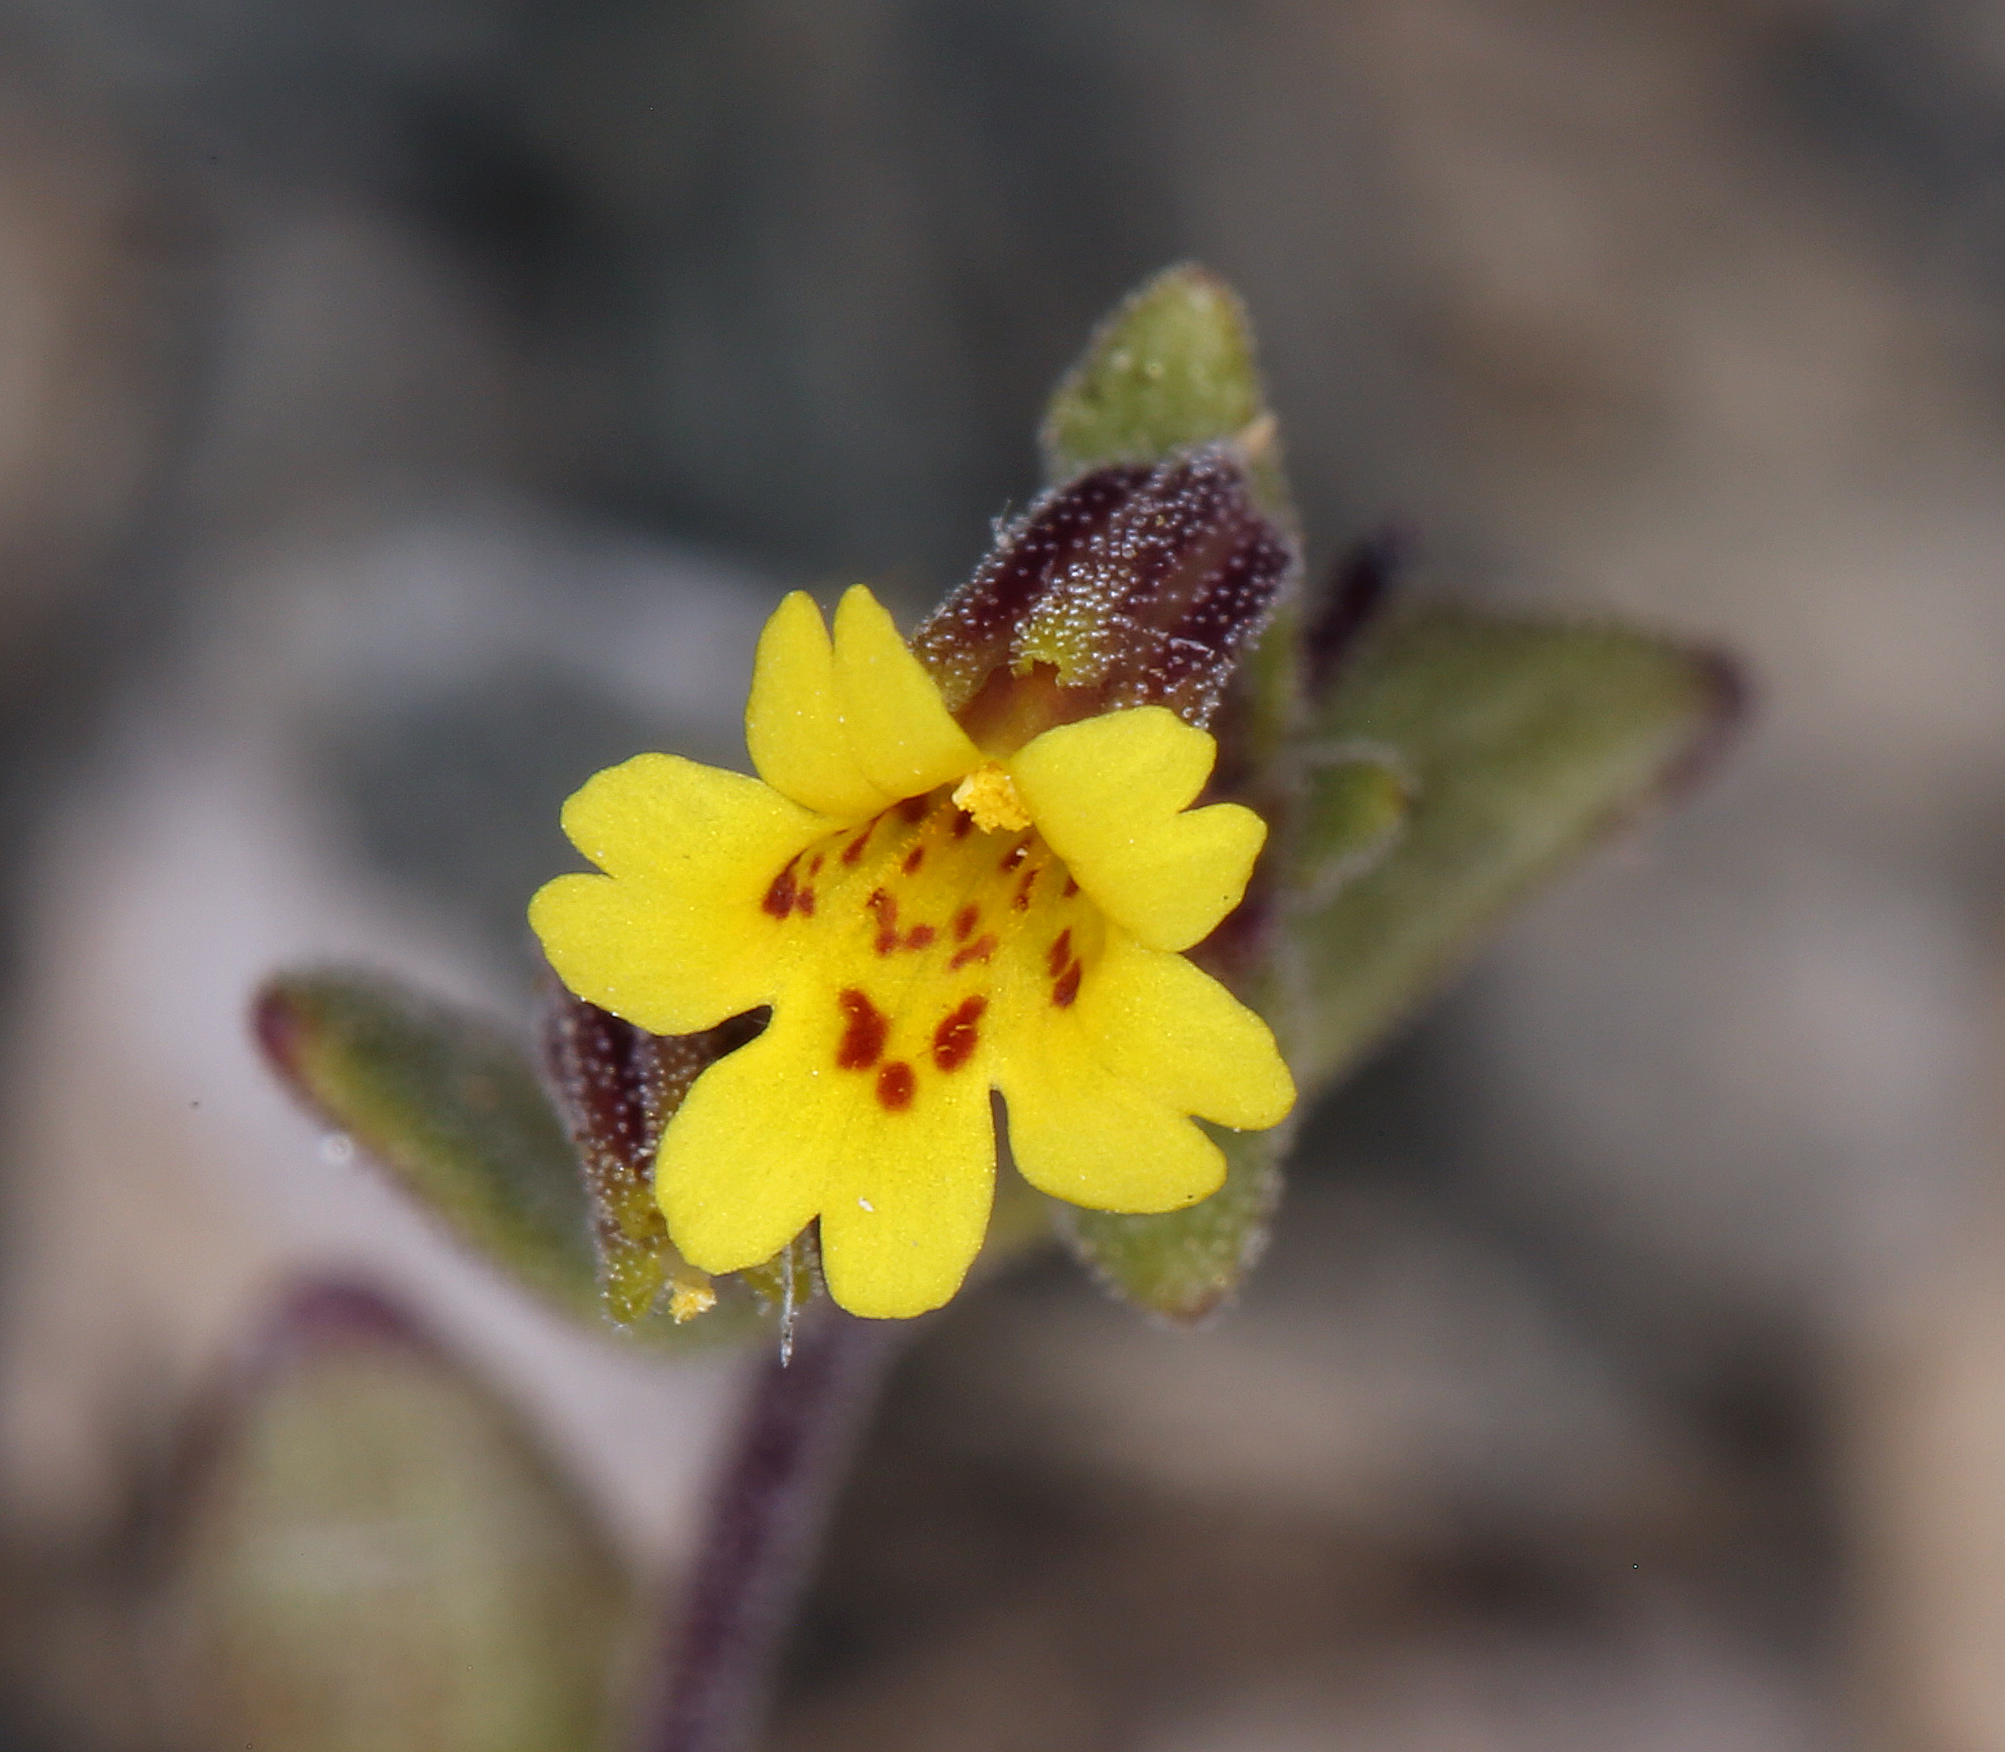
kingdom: Plantae
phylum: Tracheophyta
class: Magnoliopsida
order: Lamiales
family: Phrymaceae
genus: Erythranthe
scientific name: Erythranthe rubella
